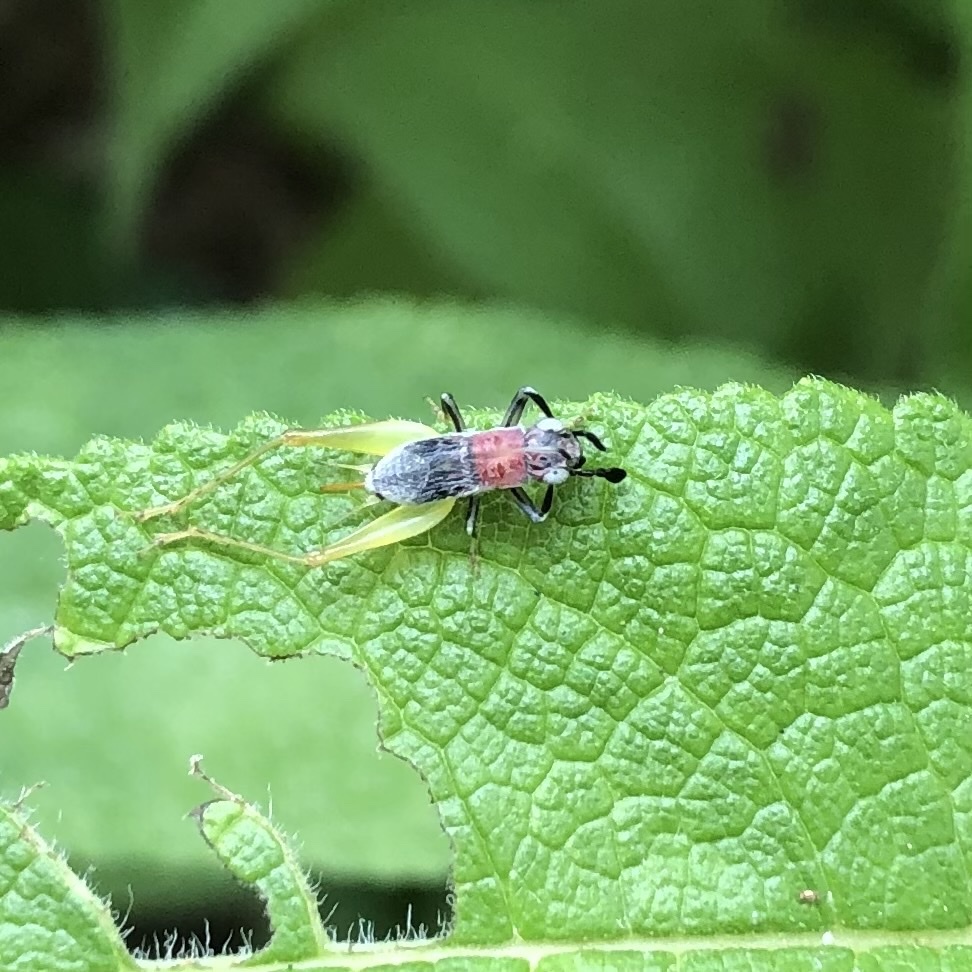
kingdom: Animalia
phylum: Arthropoda
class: Insecta
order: Orthoptera
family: Trigonidiidae
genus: Phyllopalpus
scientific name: Phyllopalpus pulchellus
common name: Handsome trig
